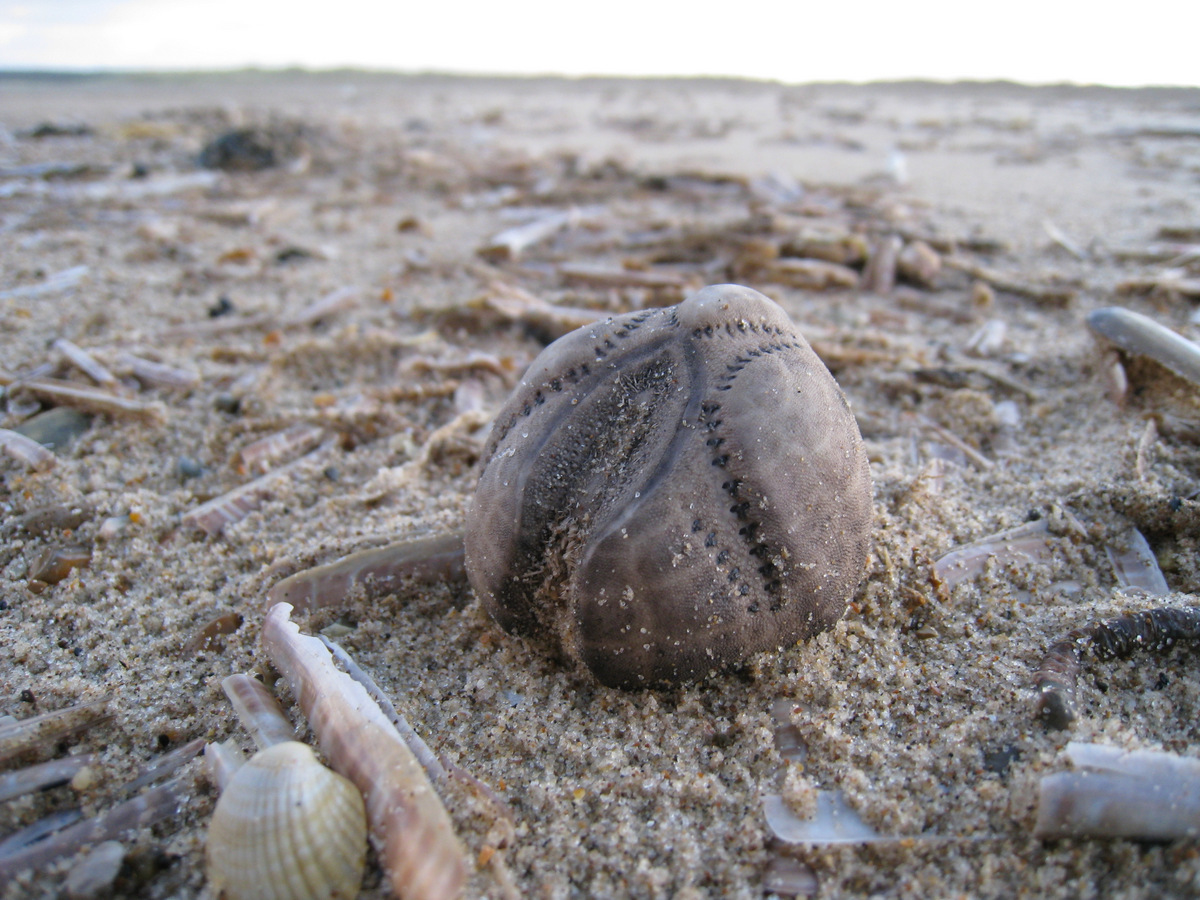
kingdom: Animalia
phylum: Echinodermata
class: Echinoidea
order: Spatangoida
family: Loveniidae
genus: Echinocardium
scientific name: Echinocardium cordatum
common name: Heart-urchin
